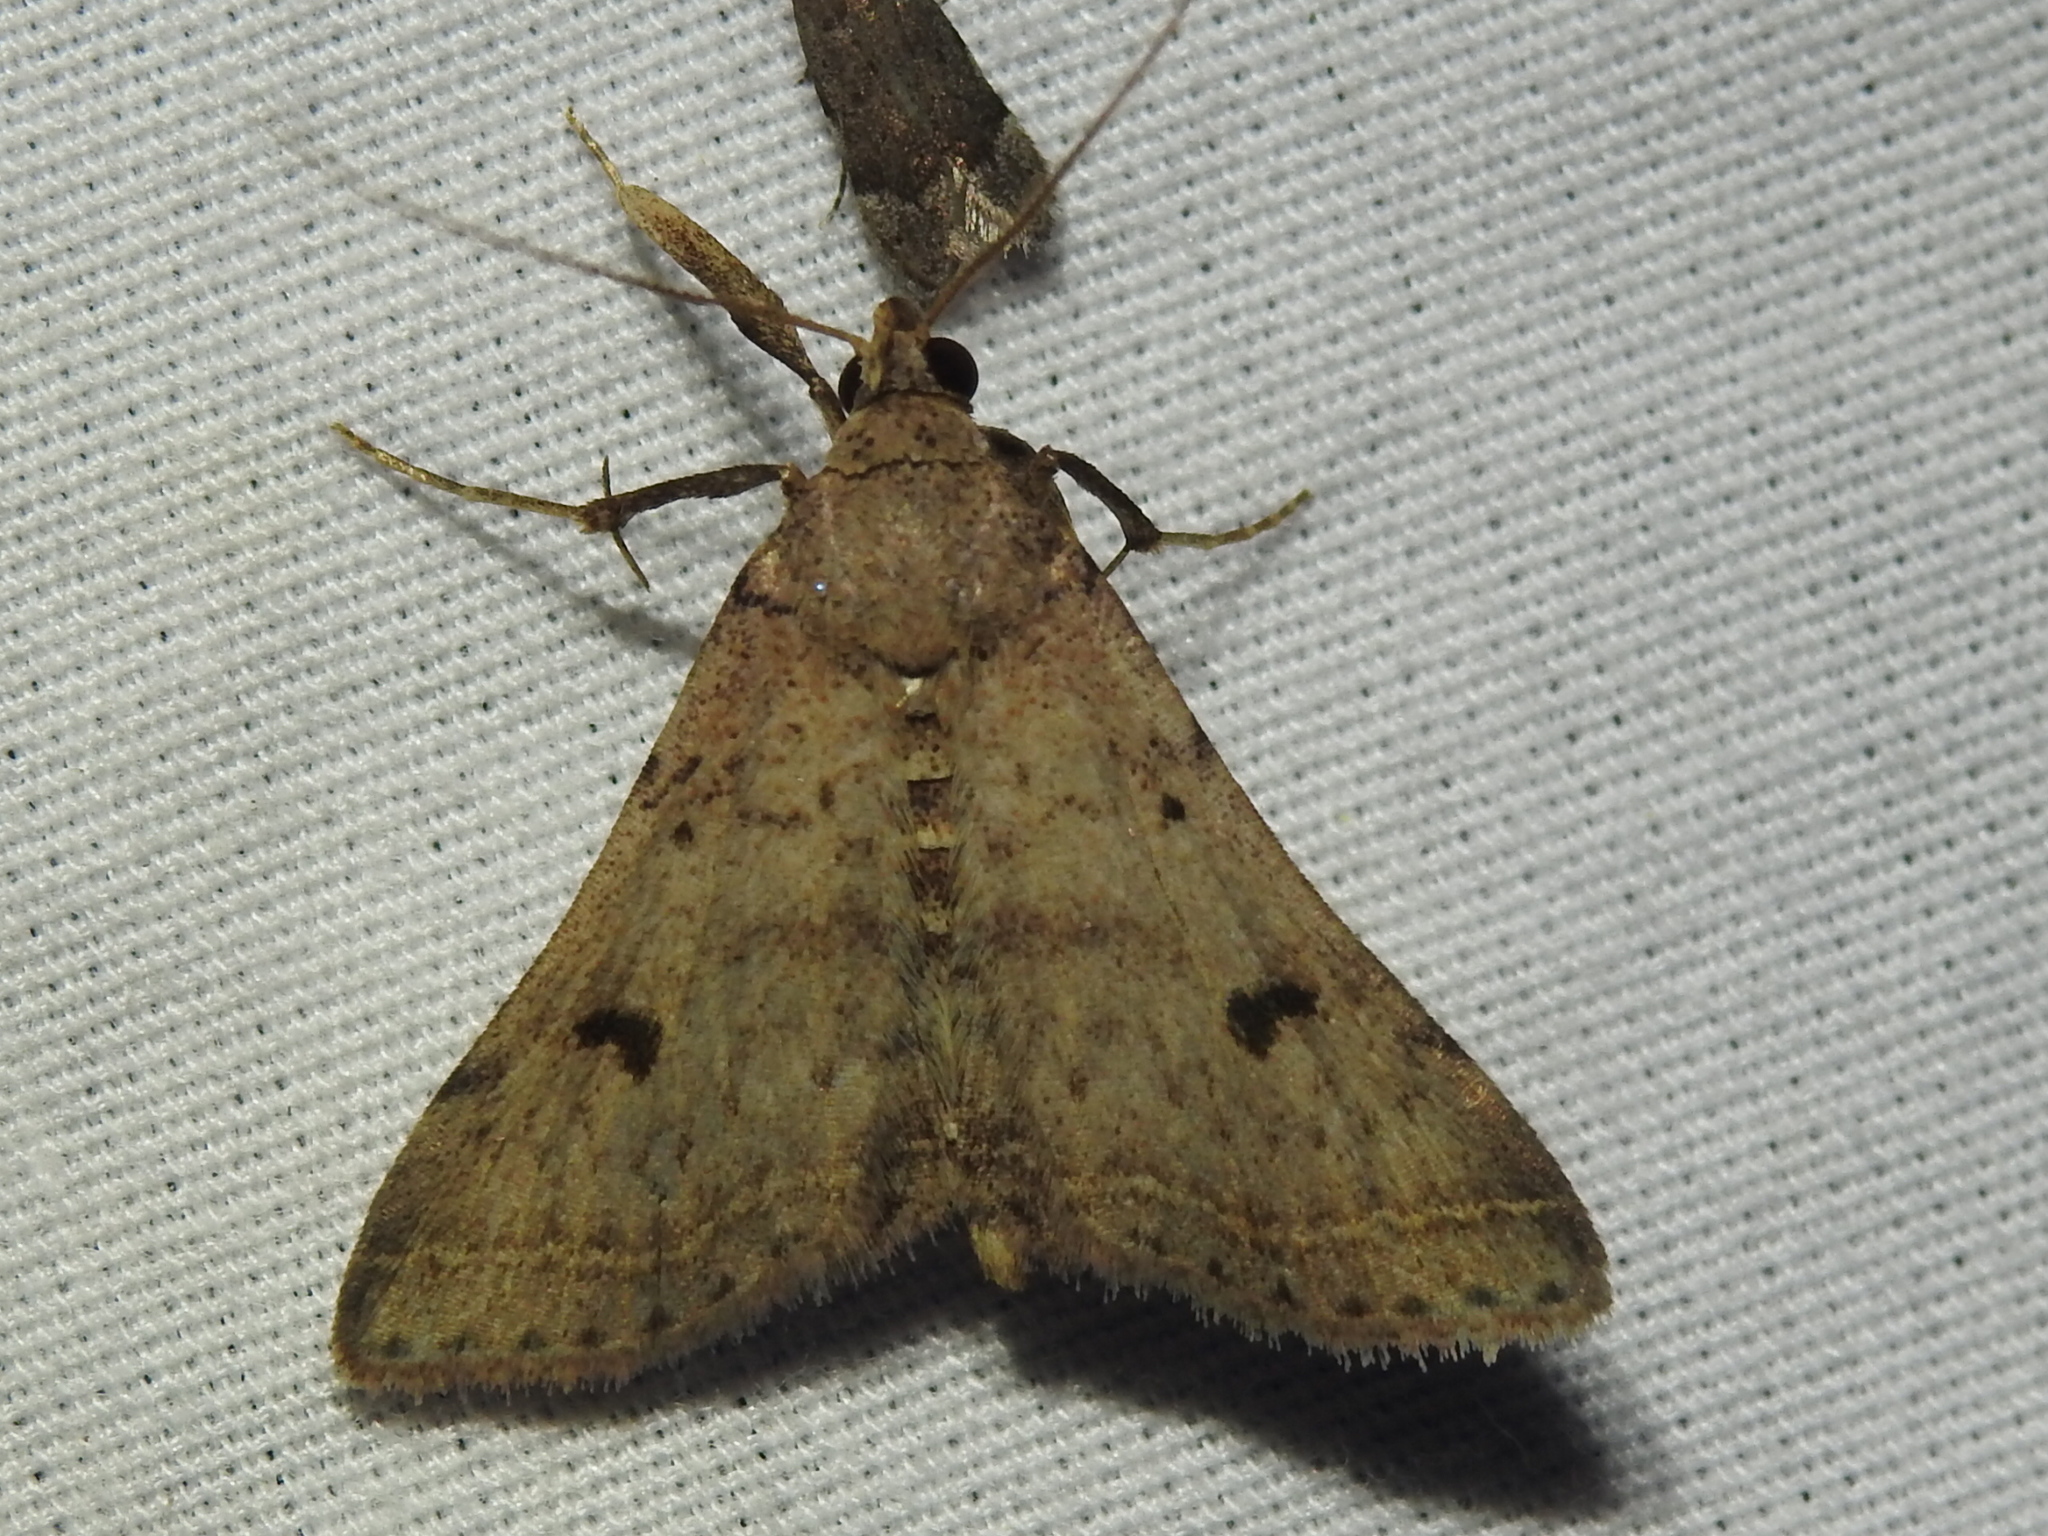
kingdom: Animalia
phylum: Arthropoda
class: Insecta
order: Lepidoptera
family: Erebidae
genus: Bleptina
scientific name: Bleptina caradrinalis
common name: Bent-winged owlet
